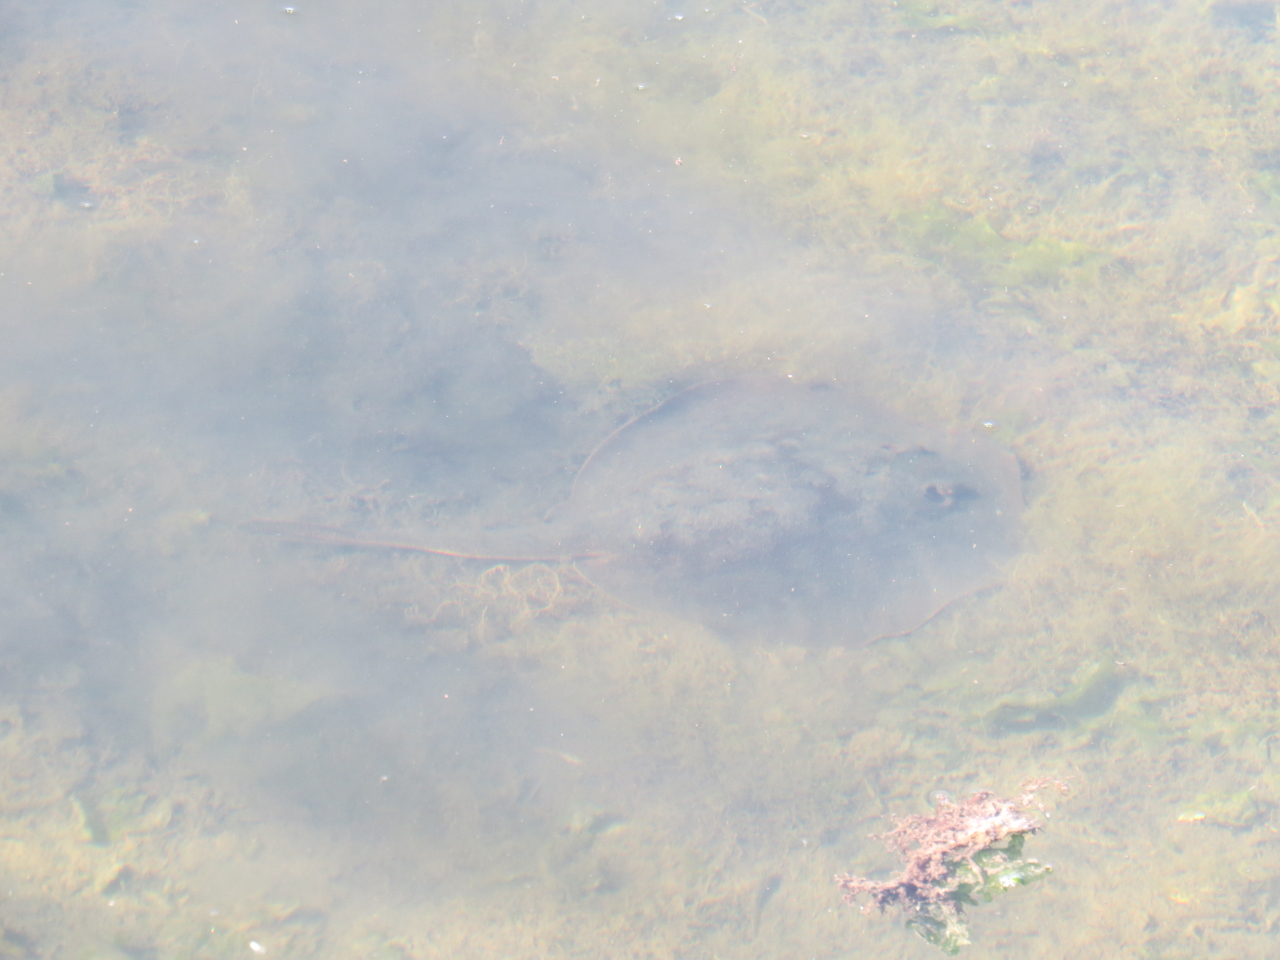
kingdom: Animalia
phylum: Chordata
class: Elasmobranchii
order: Myliobatiformes
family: Urolophidae
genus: Urolophus
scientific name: Urolophus halleri
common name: Round stingray
